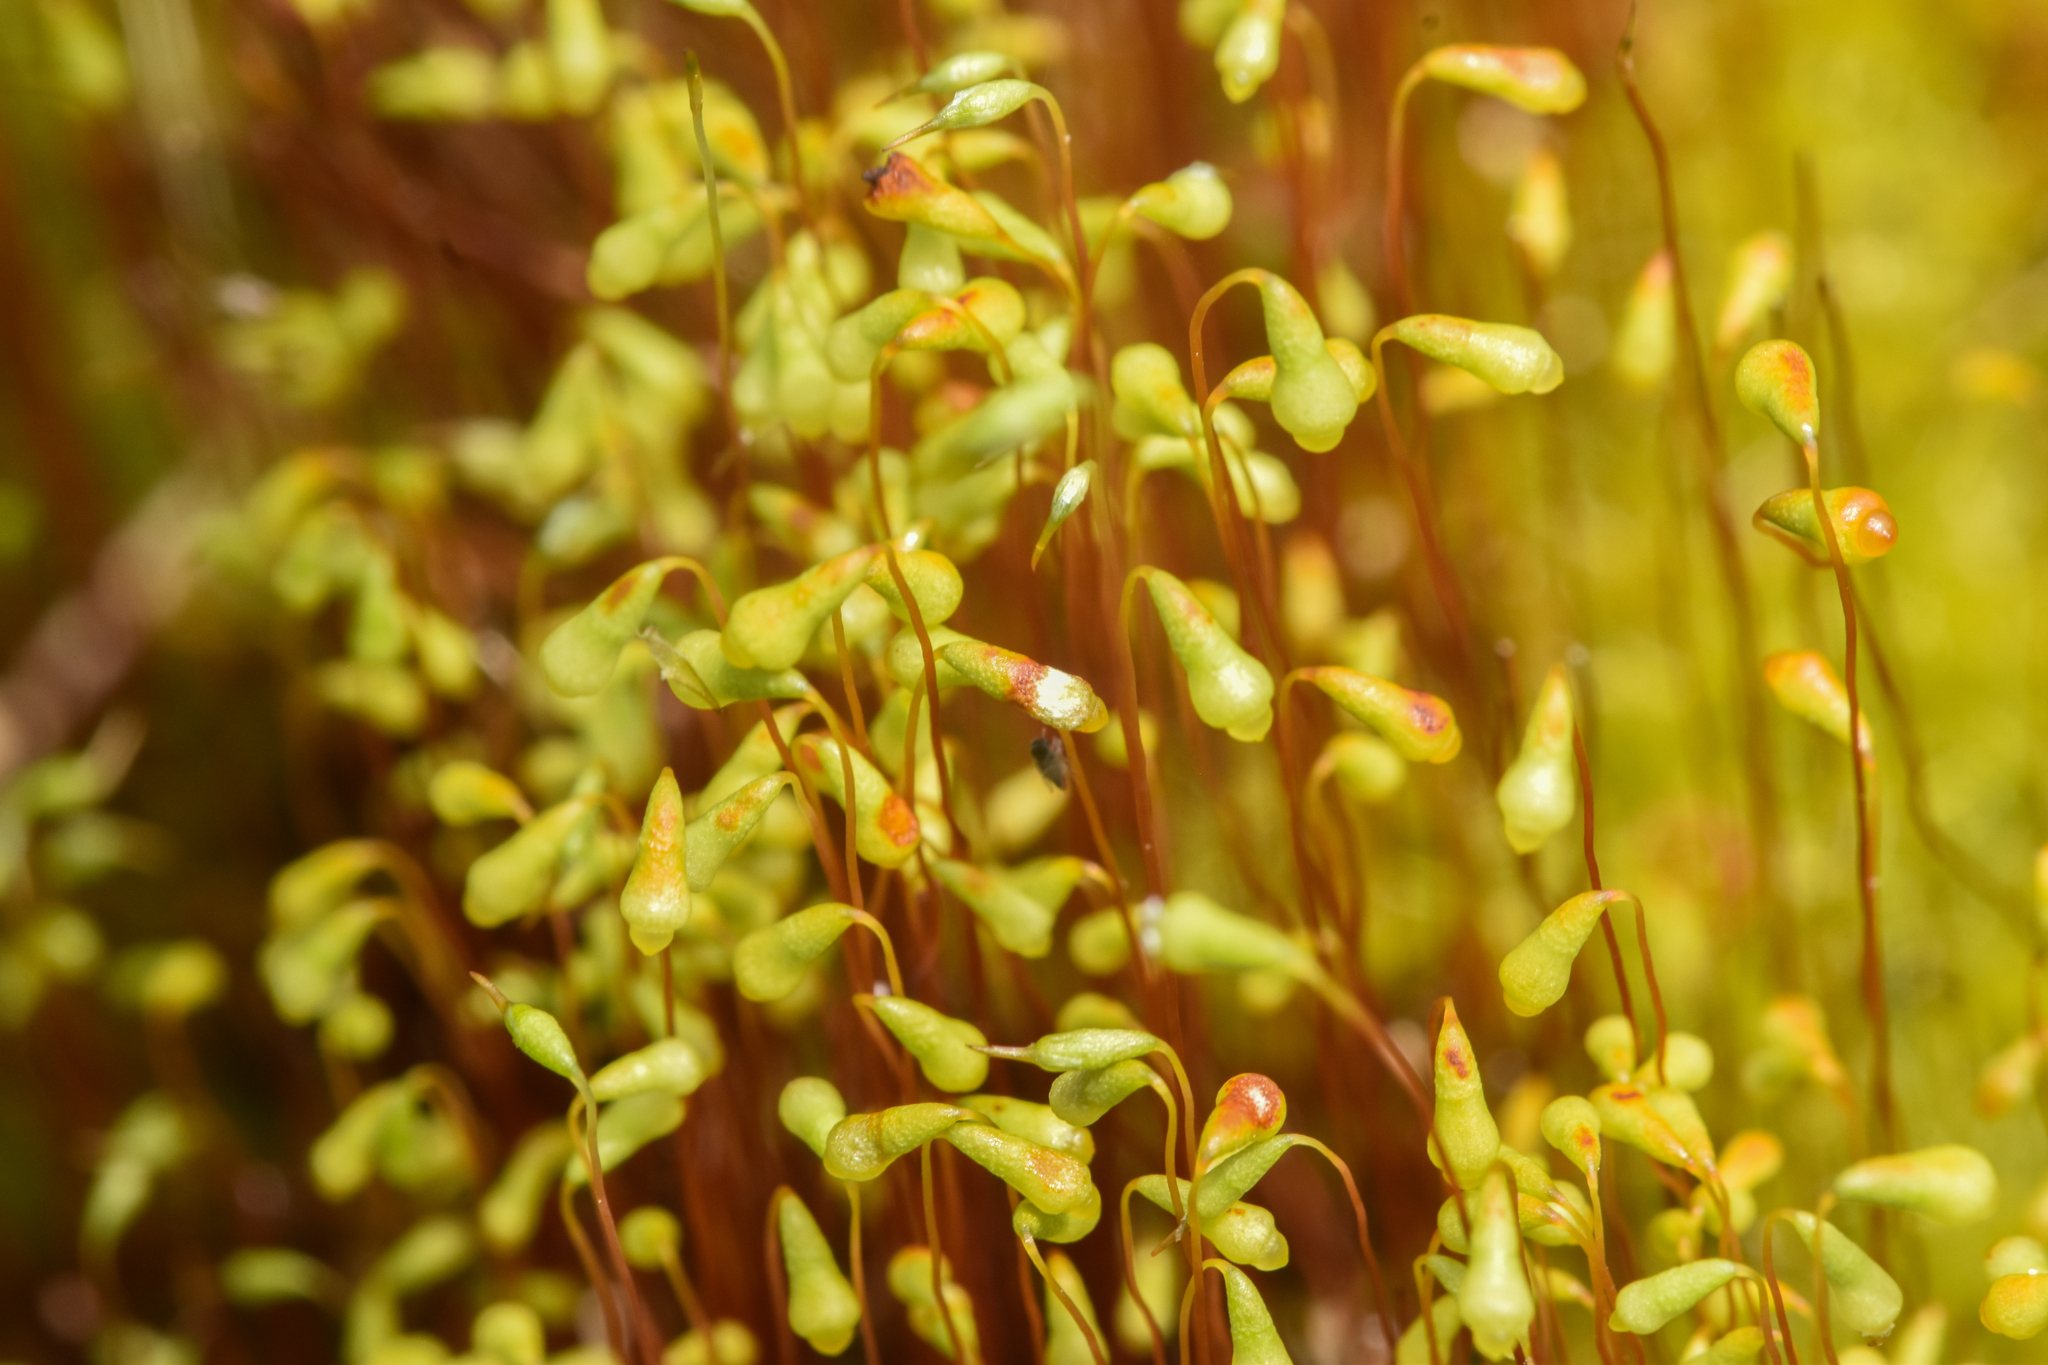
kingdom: Plantae
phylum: Bryophyta
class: Bryopsida
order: Splachnales
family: Meesiaceae
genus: Leptobryum
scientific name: Leptobryum pyriforme
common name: Golden thread moss
